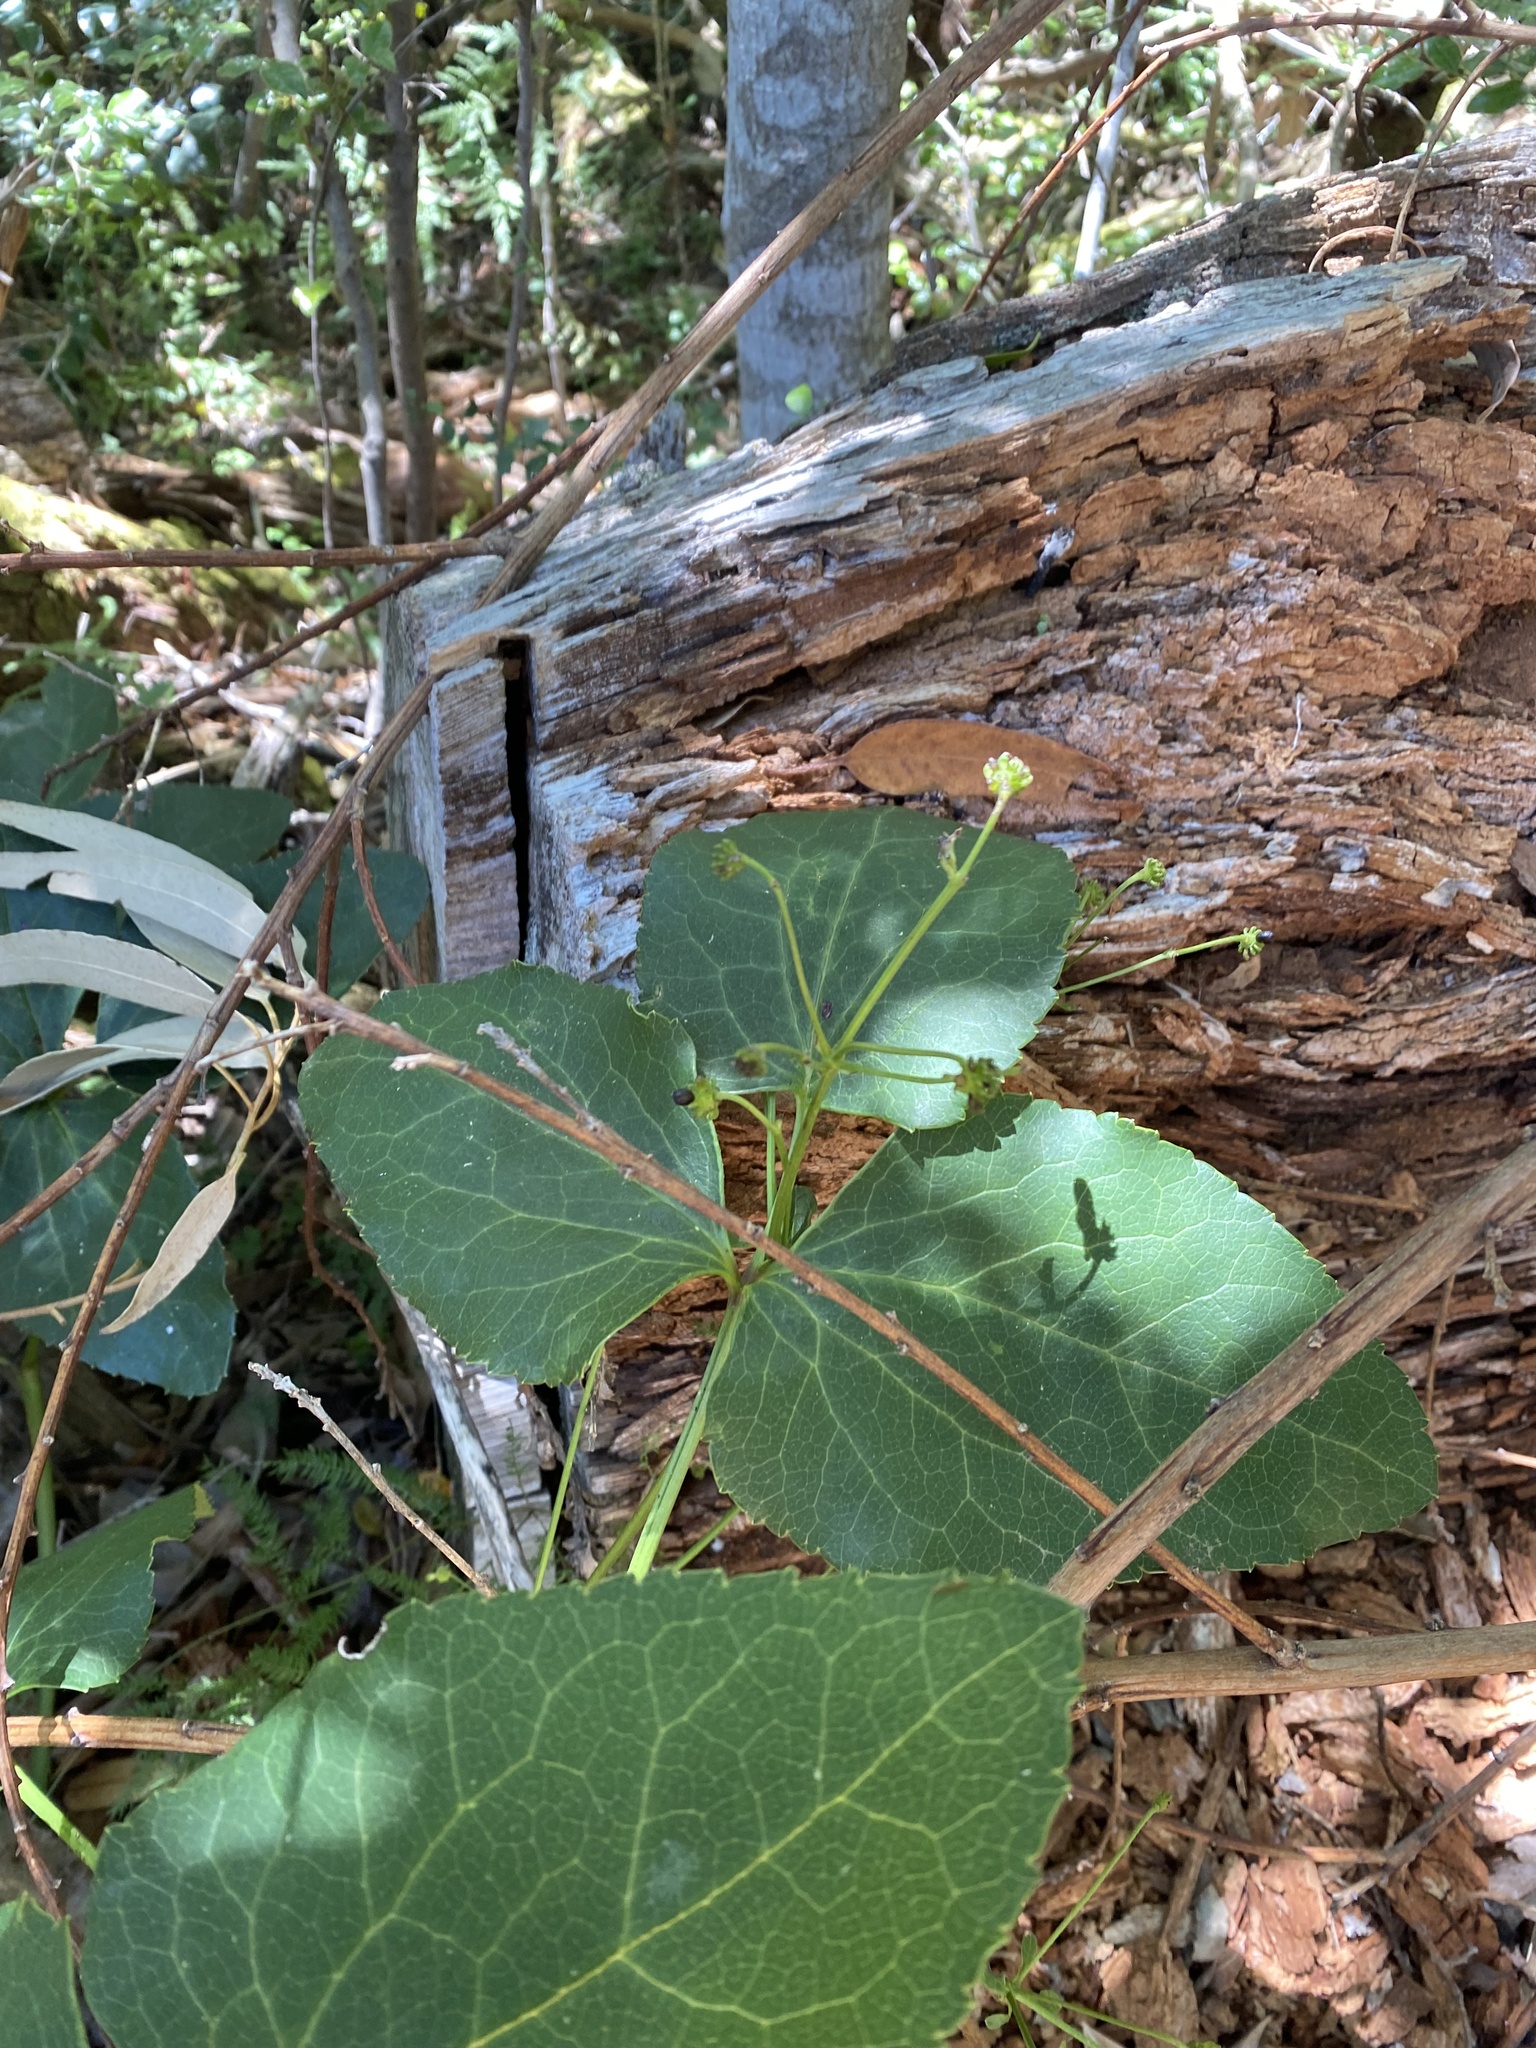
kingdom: Plantae
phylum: Tracheophyta
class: Magnoliopsida
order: Ranunculales
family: Ranunculaceae
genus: Knowltonia
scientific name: Knowltonia vesicatoria
